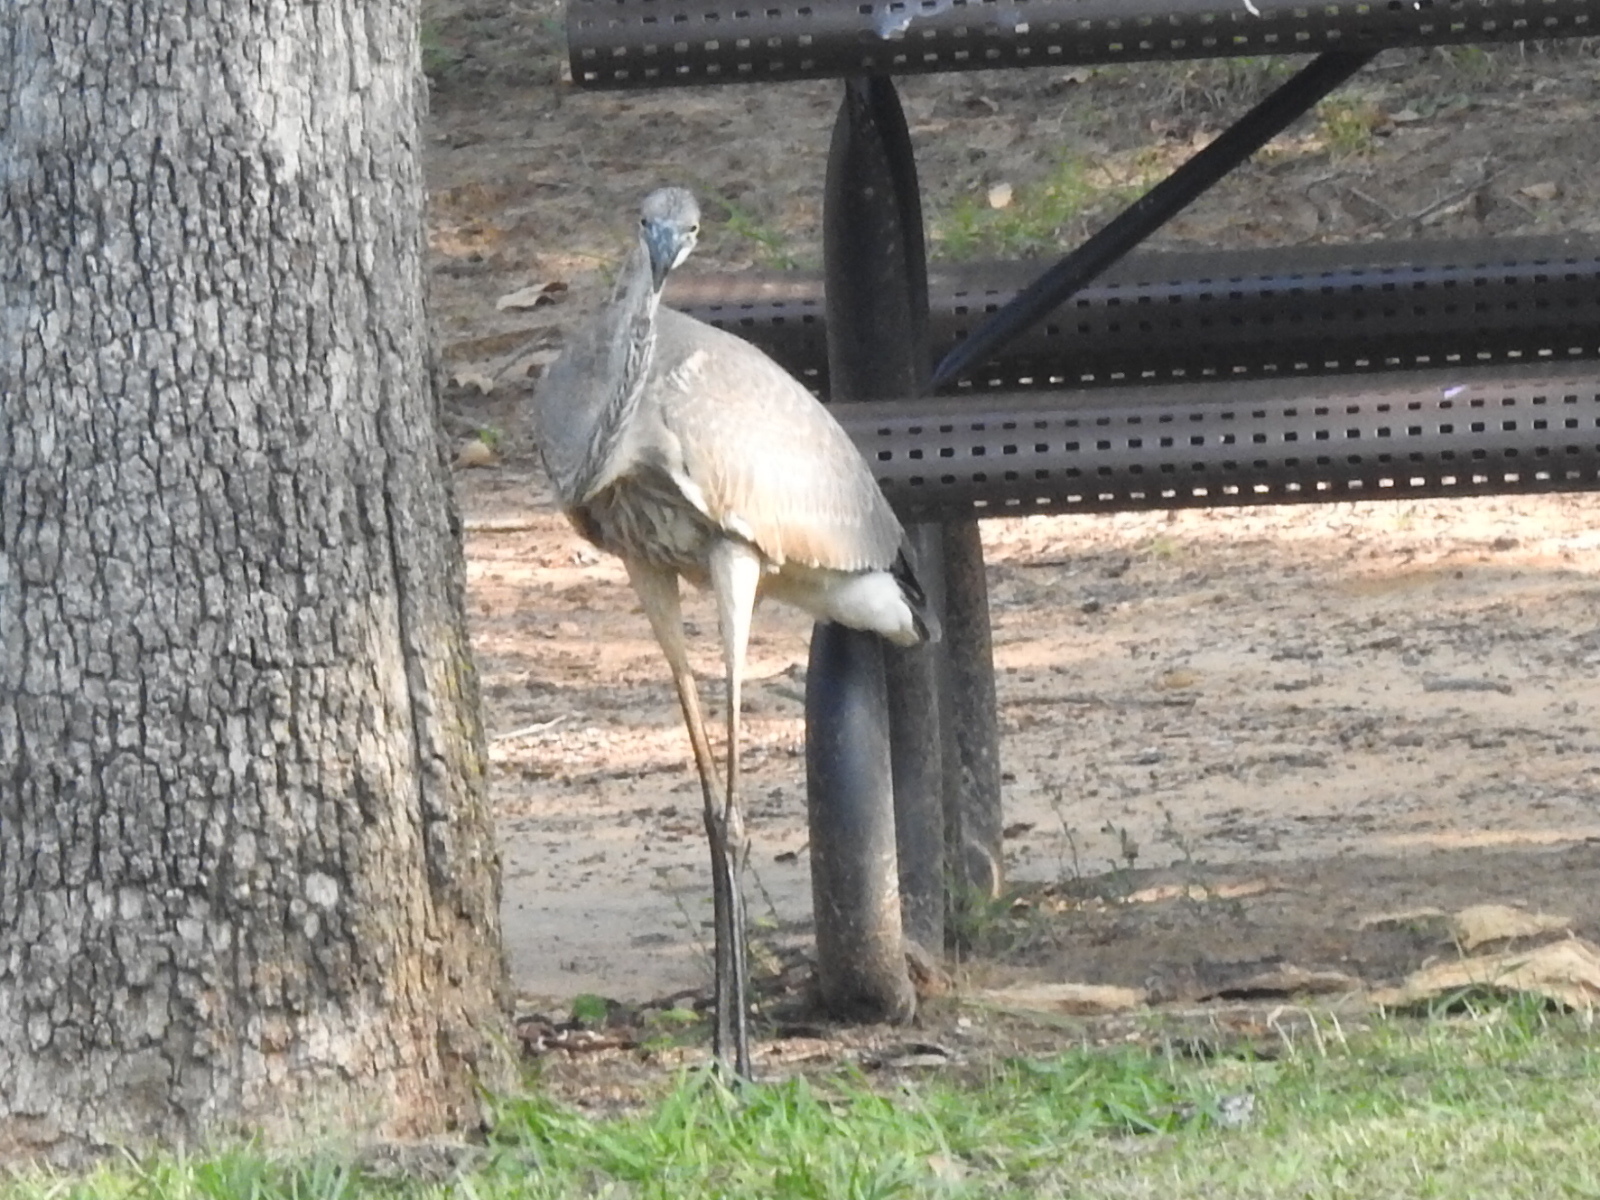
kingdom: Animalia
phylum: Chordata
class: Aves
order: Pelecaniformes
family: Ardeidae
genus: Ardea
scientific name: Ardea herodias
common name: Great blue heron
